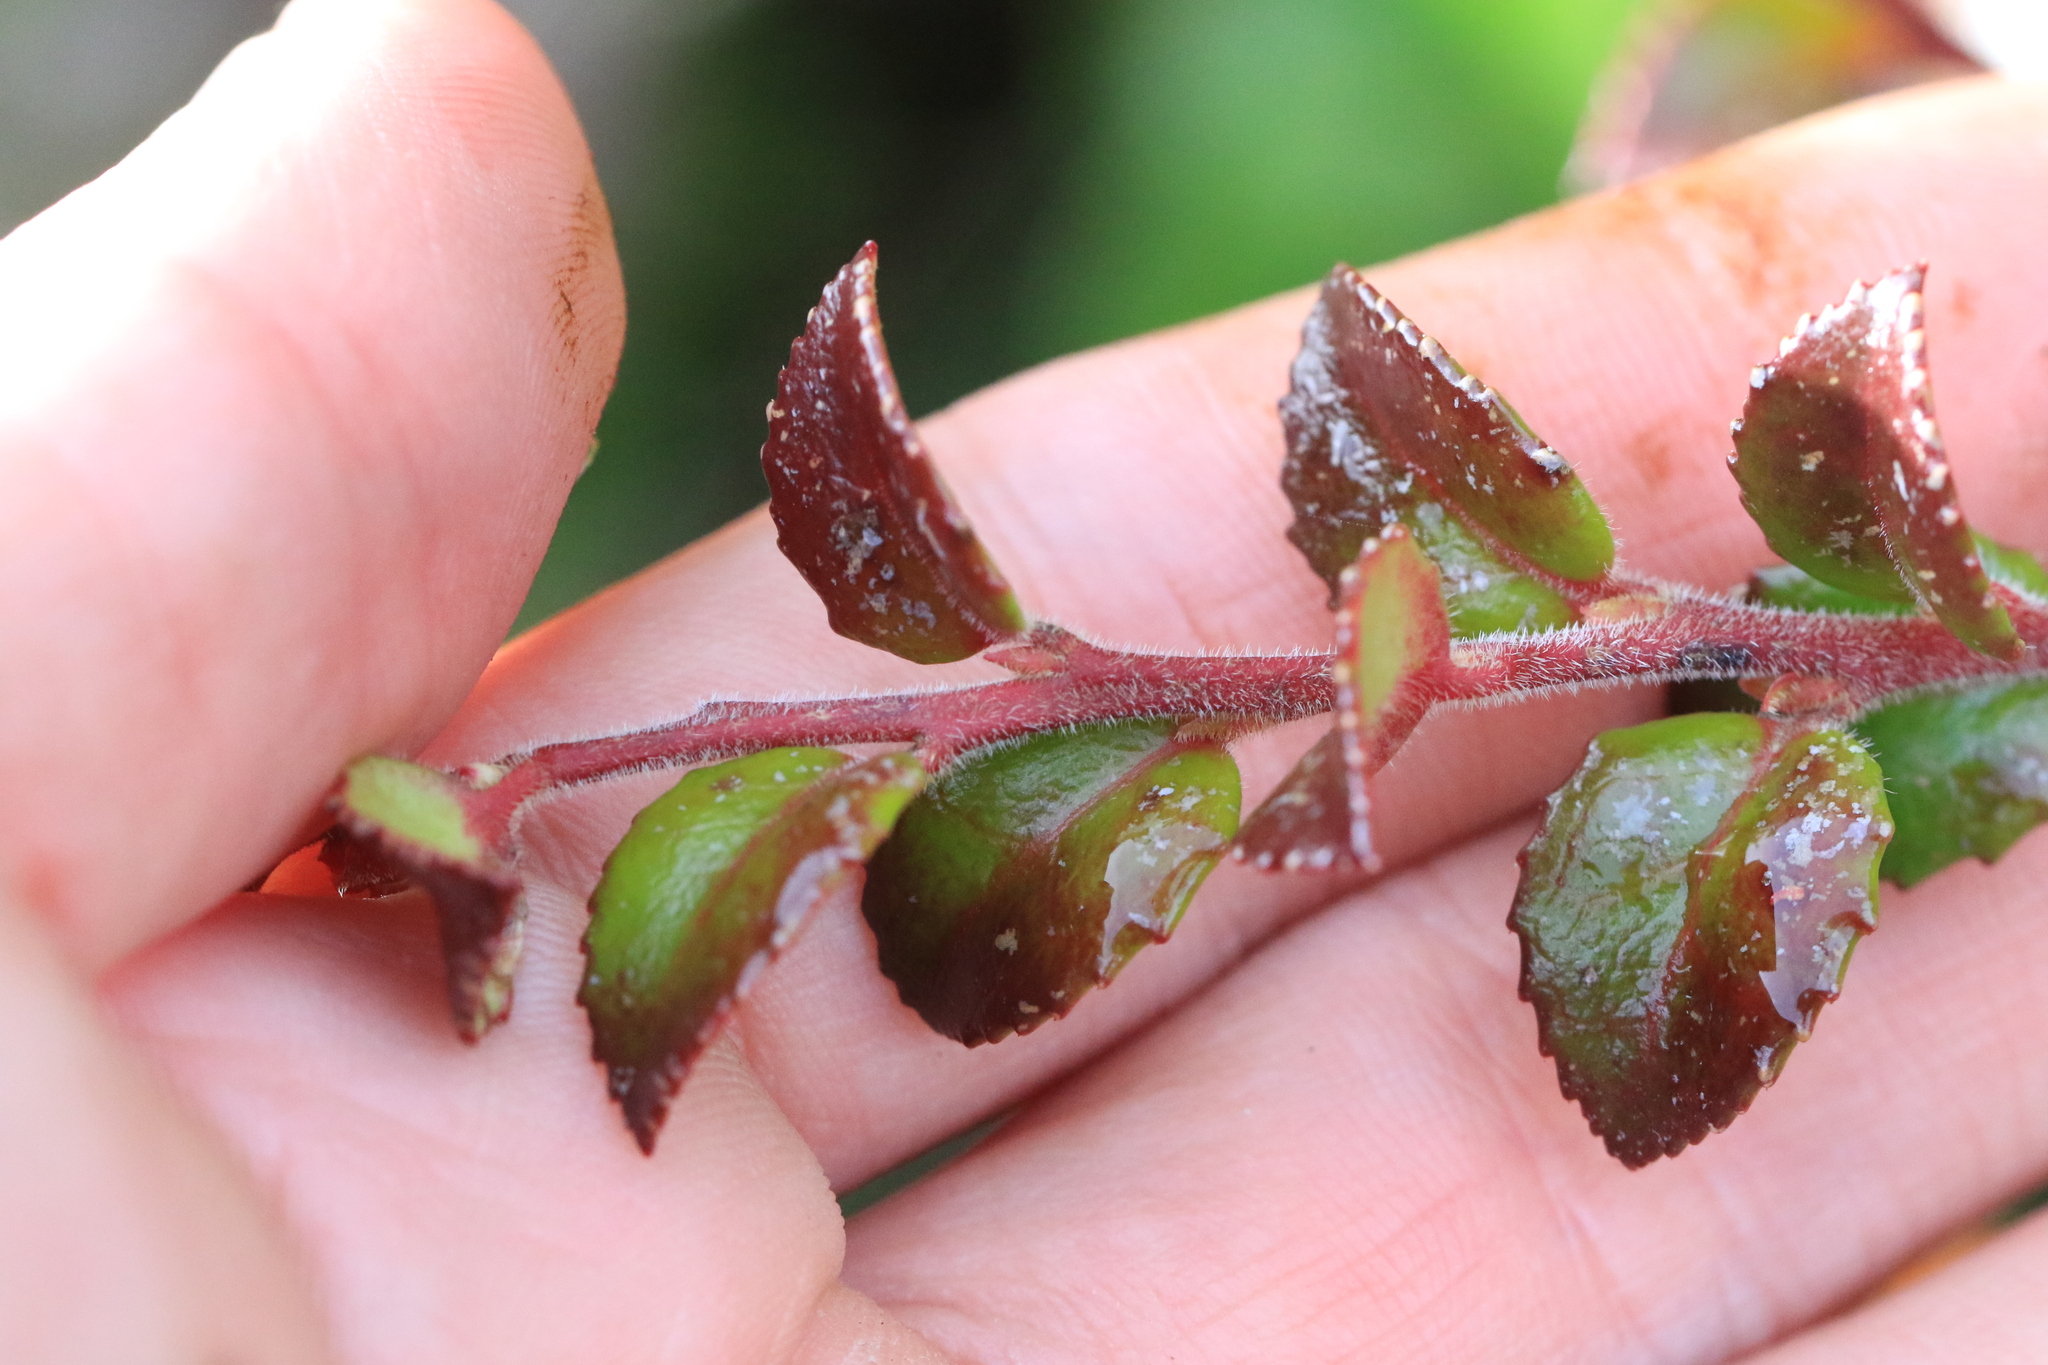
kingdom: Plantae
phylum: Tracheophyta
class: Magnoliopsida
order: Ericales
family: Ericaceae
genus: Vaccinium
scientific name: Vaccinium ovatum
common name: California-huckleberry
